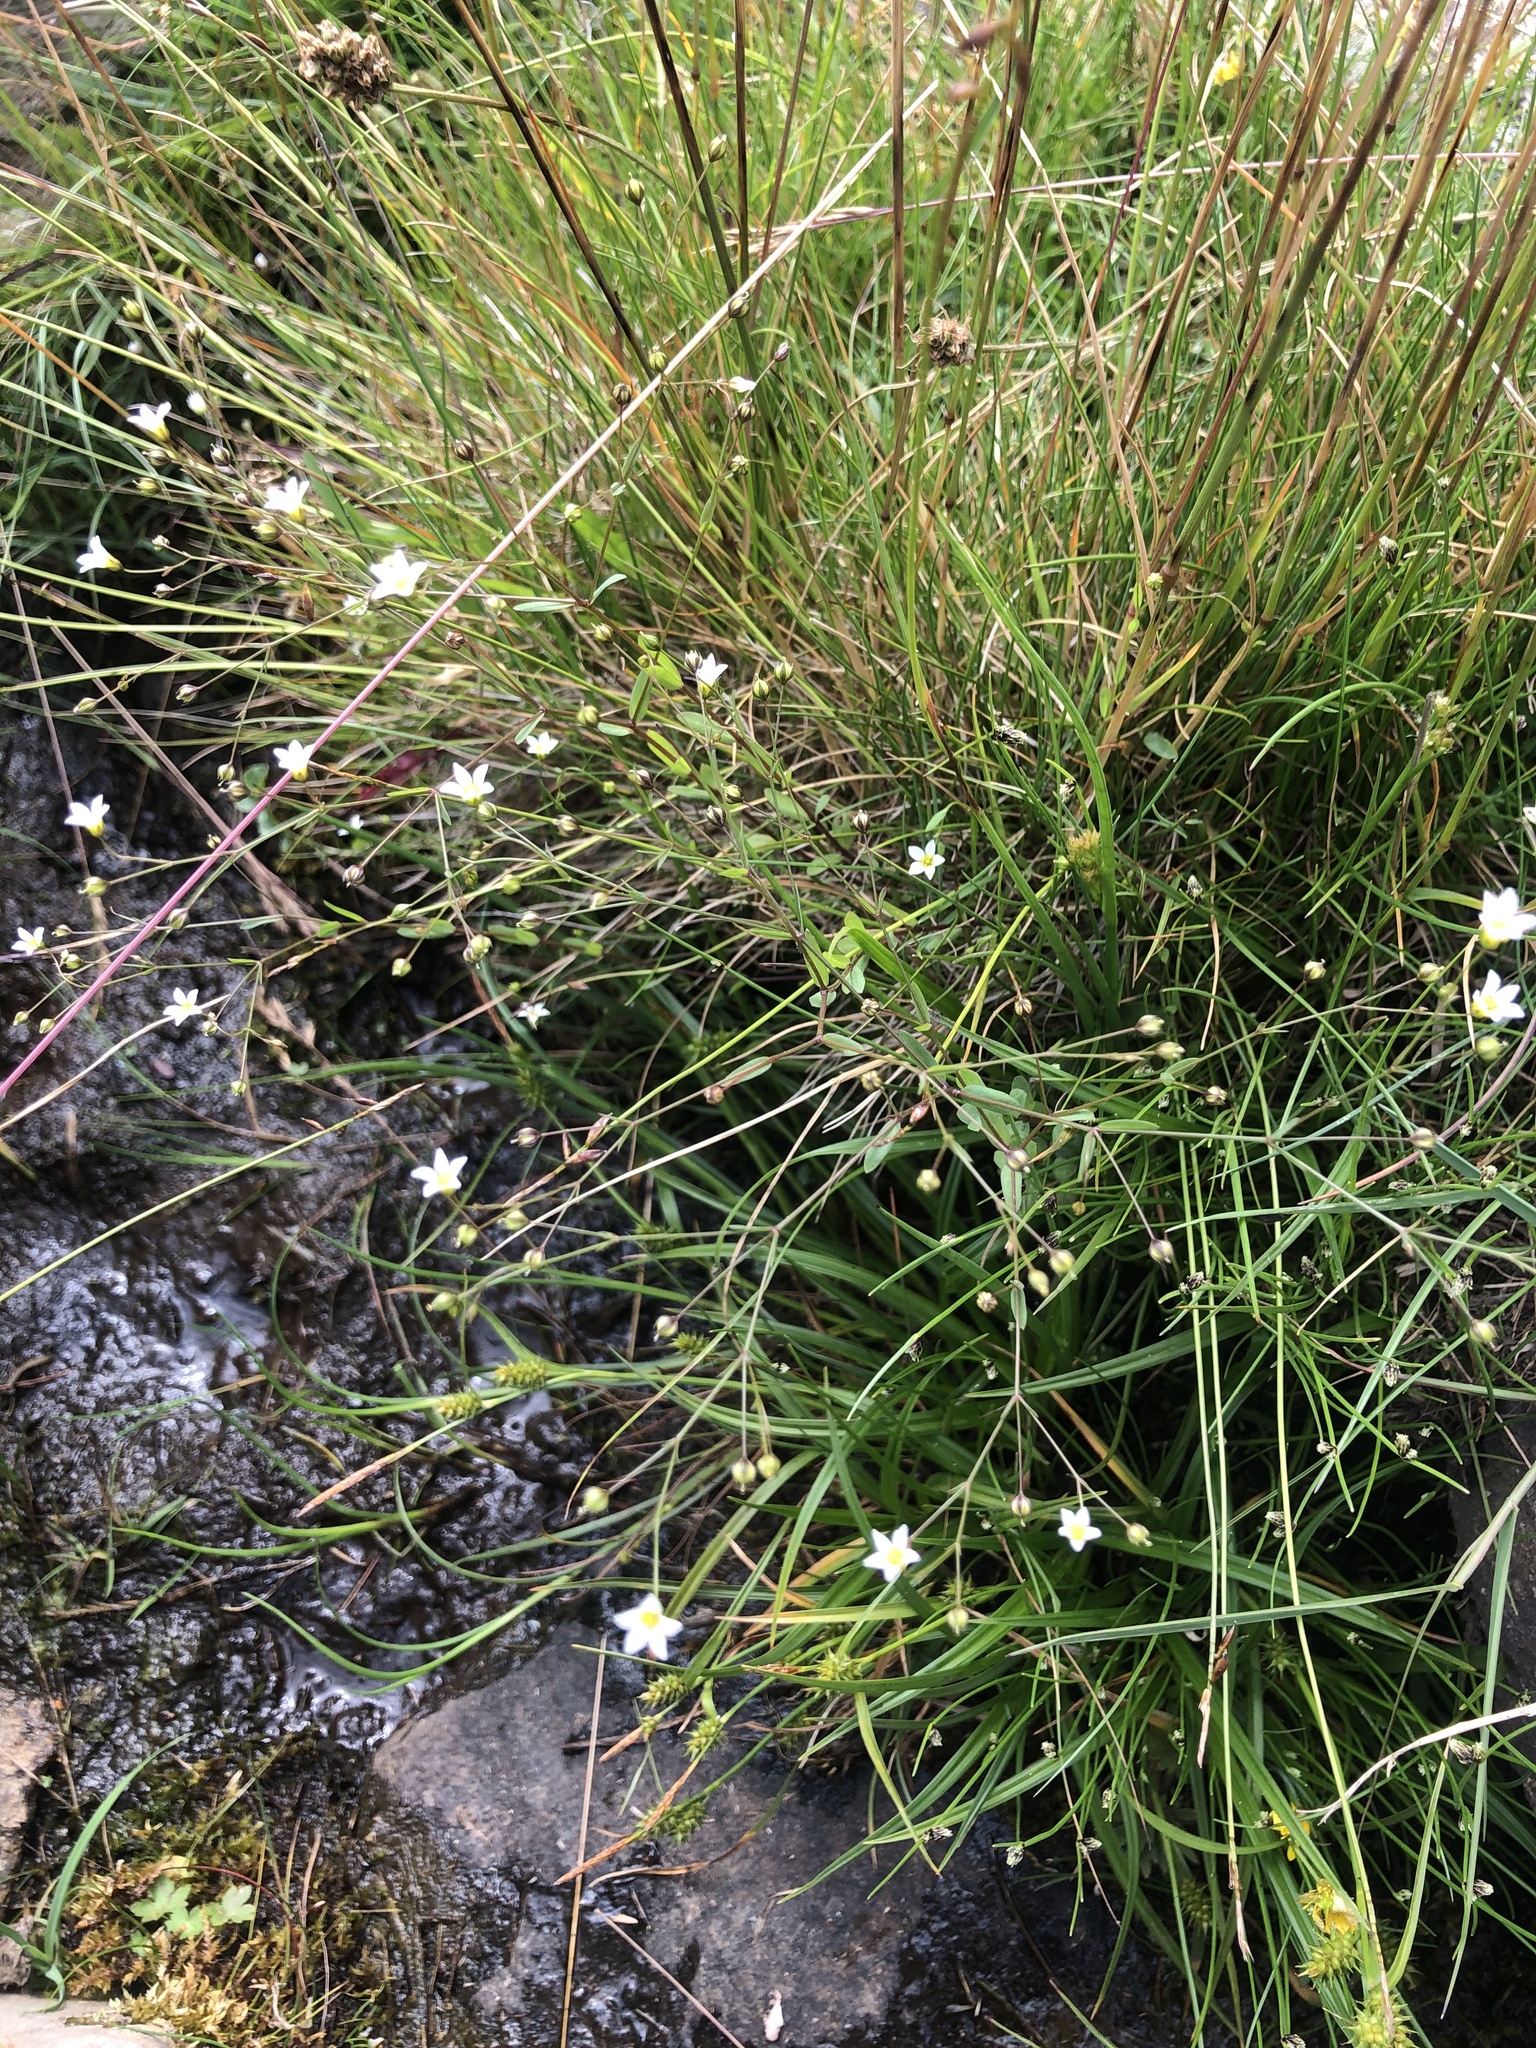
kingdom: Plantae
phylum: Tracheophyta
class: Magnoliopsida
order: Malpighiales
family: Linaceae
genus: Linum
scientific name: Linum catharticum
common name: Fairy flax
